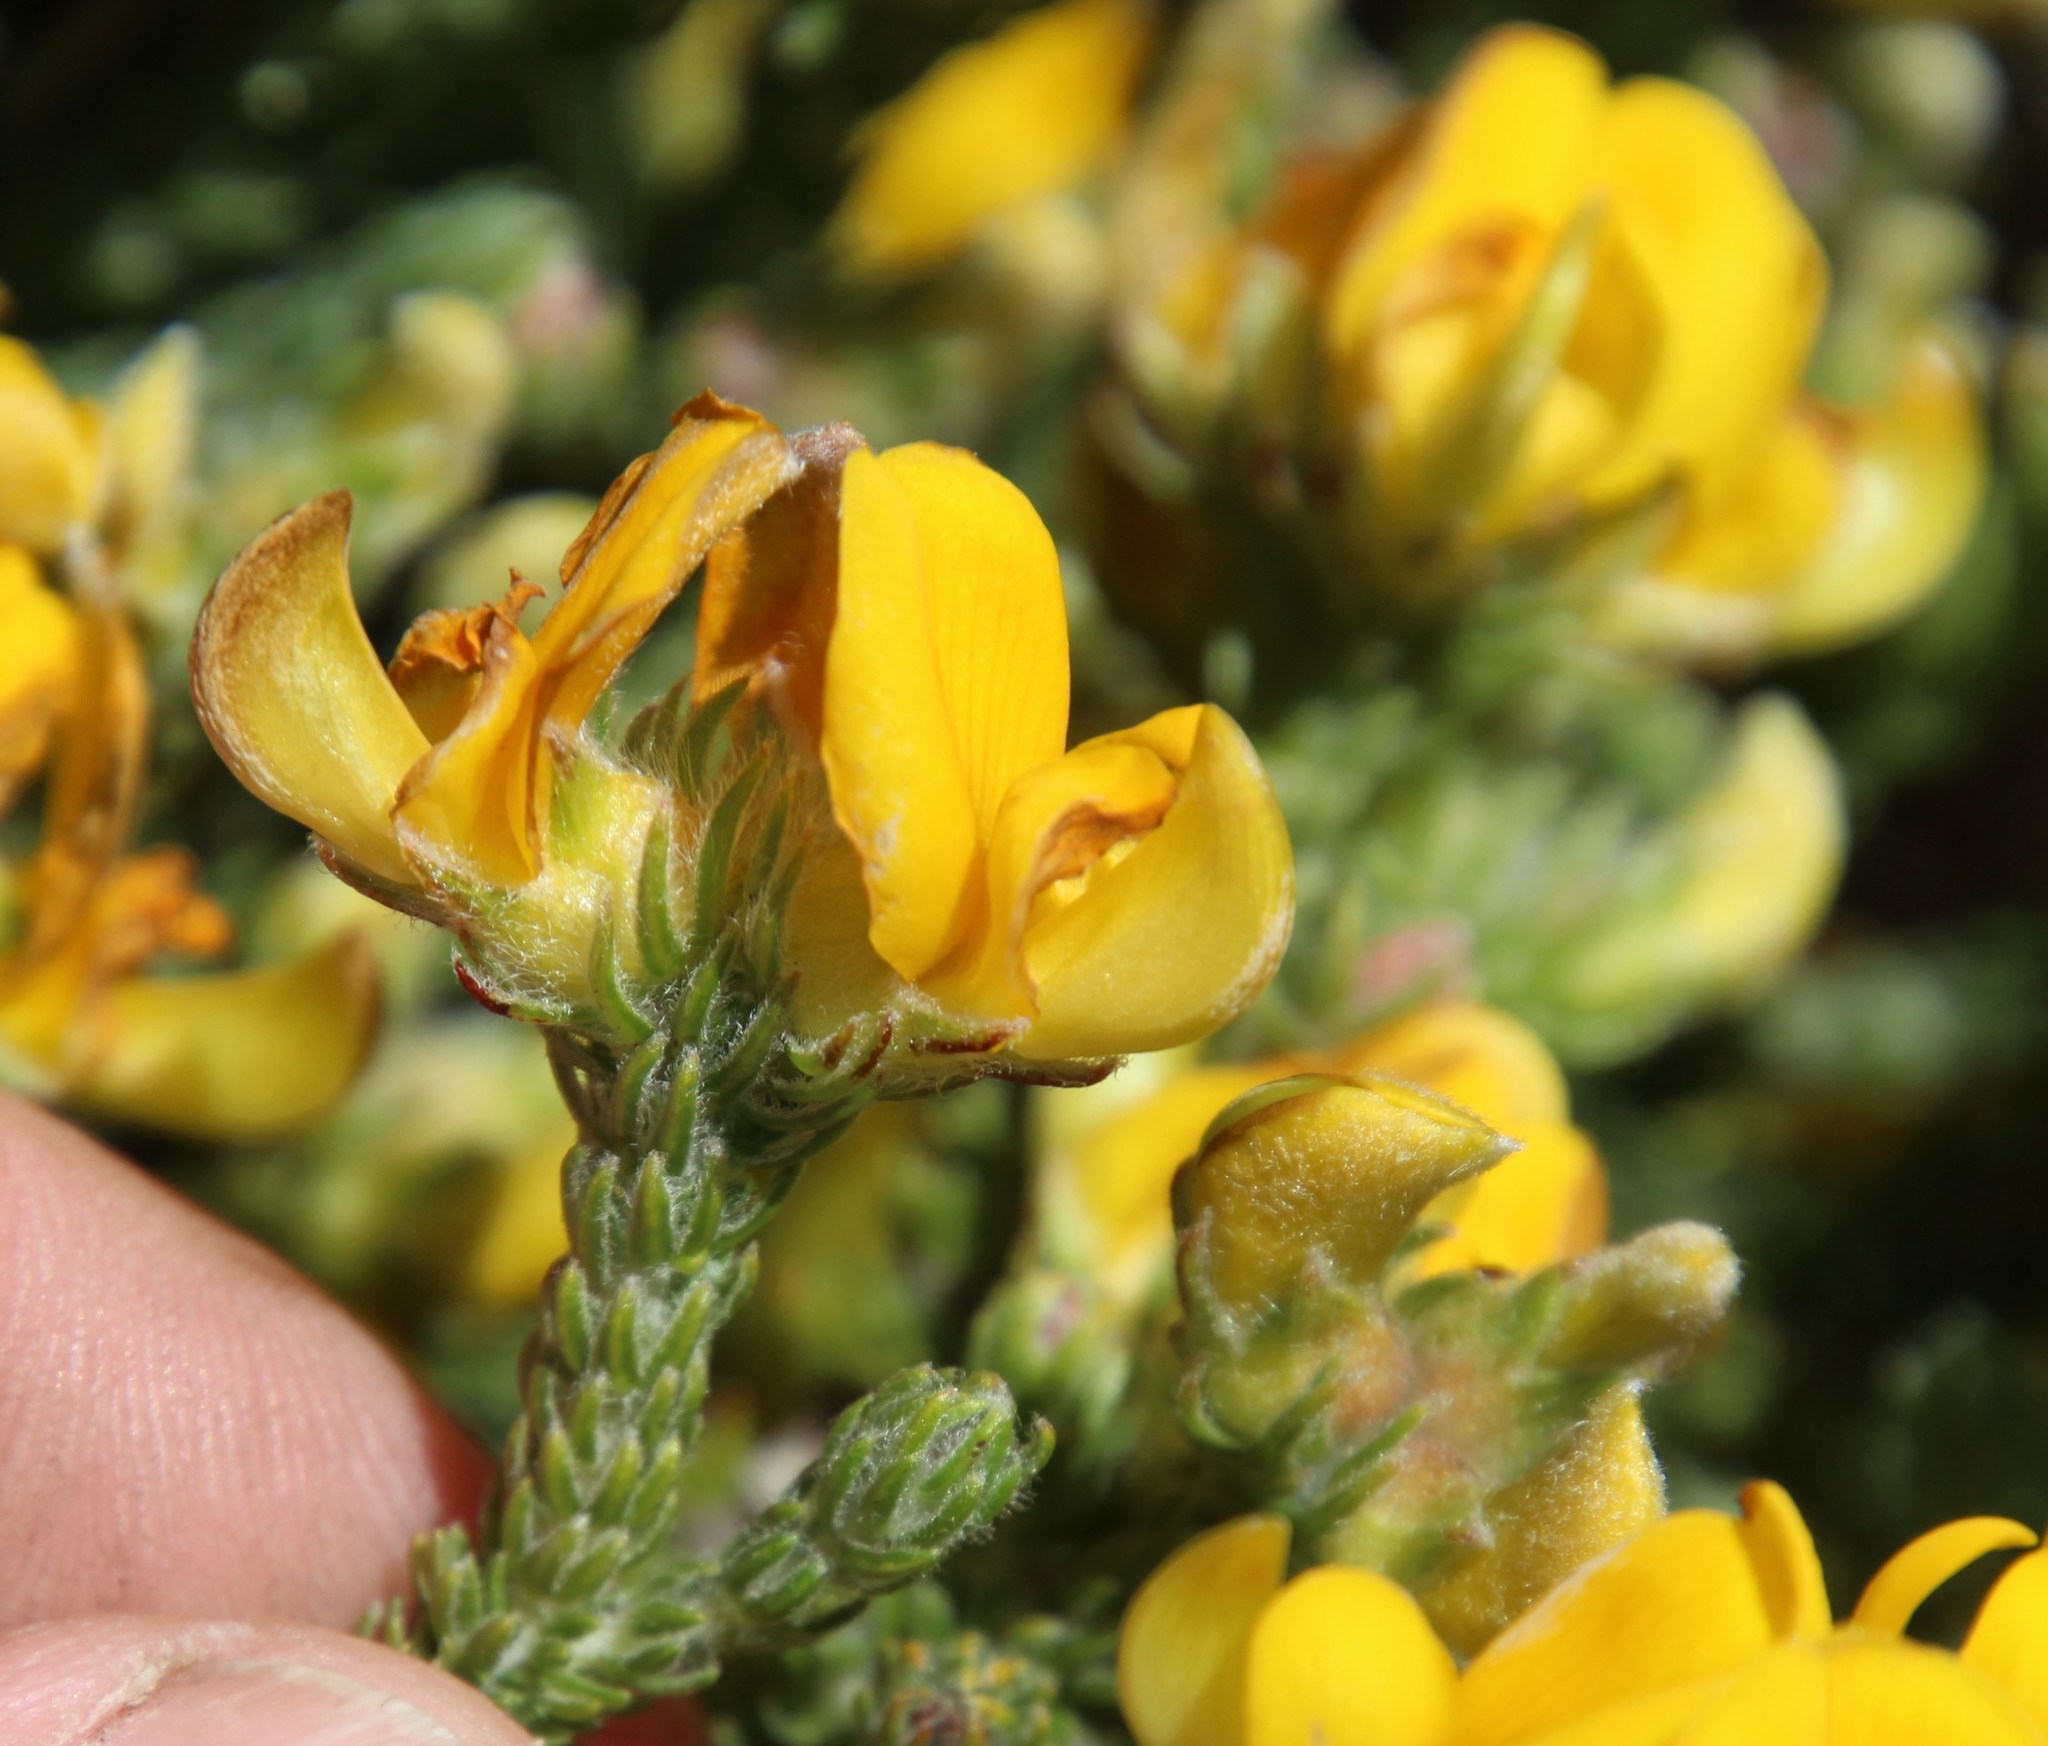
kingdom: Plantae
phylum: Tracheophyta
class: Magnoliopsida
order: Fabales
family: Fabaceae
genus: Aspalathus
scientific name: Aspalathus triquetra
